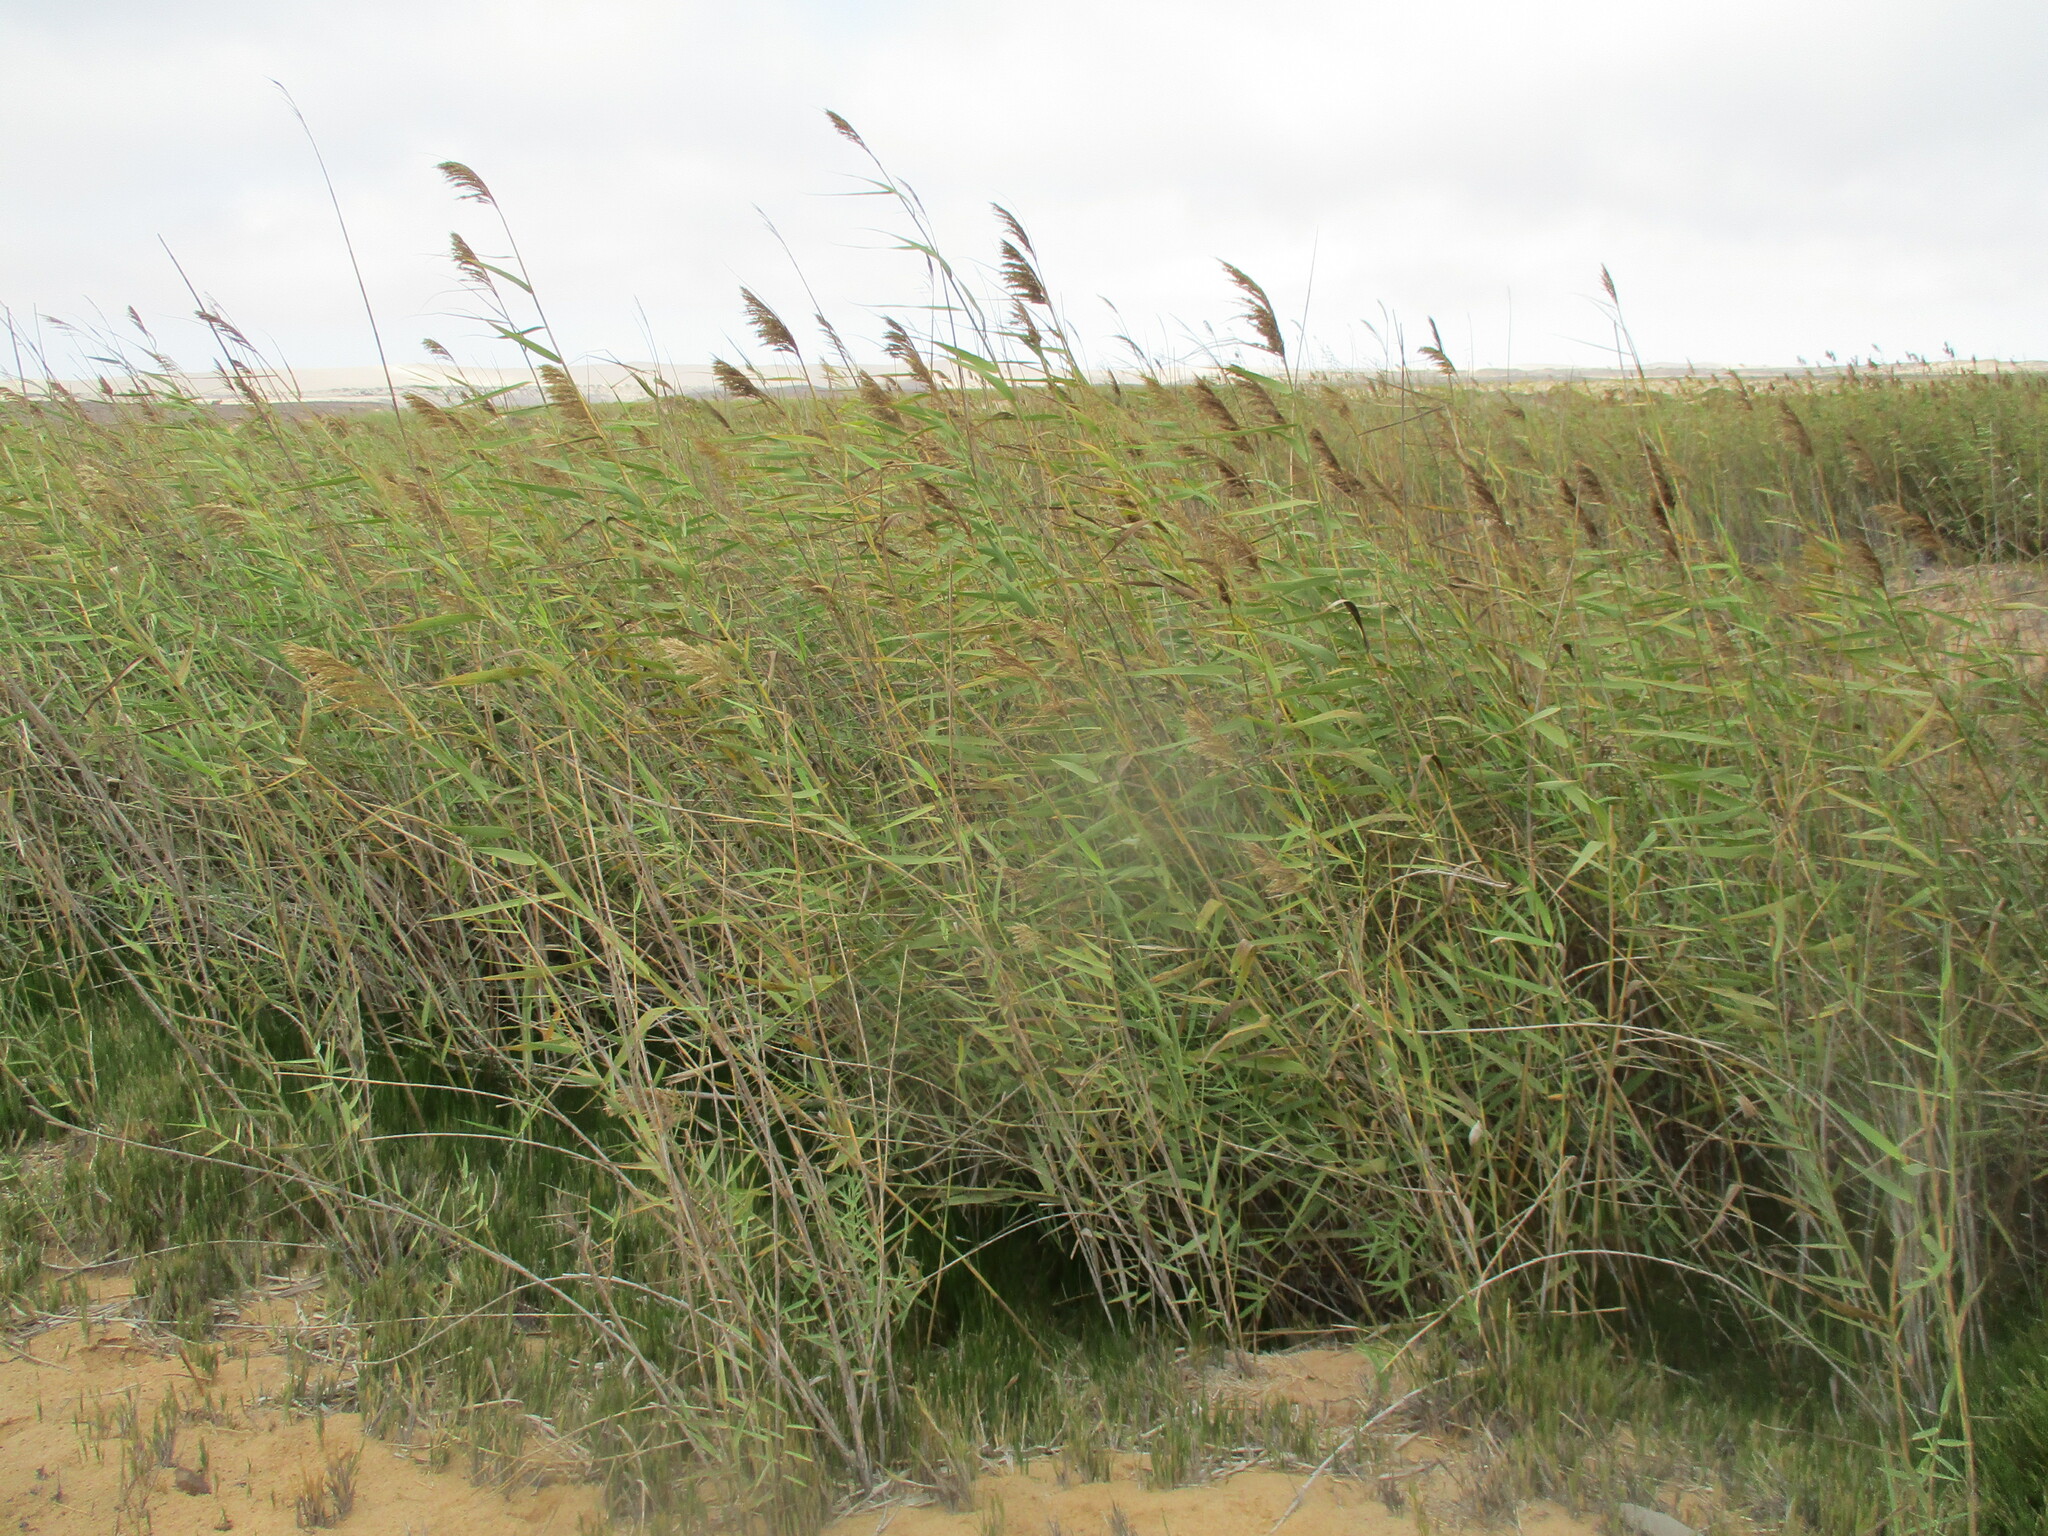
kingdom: Plantae
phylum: Tracheophyta
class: Liliopsida
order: Poales
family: Poaceae
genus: Phragmites
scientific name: Phragmites australis
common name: Common reed
